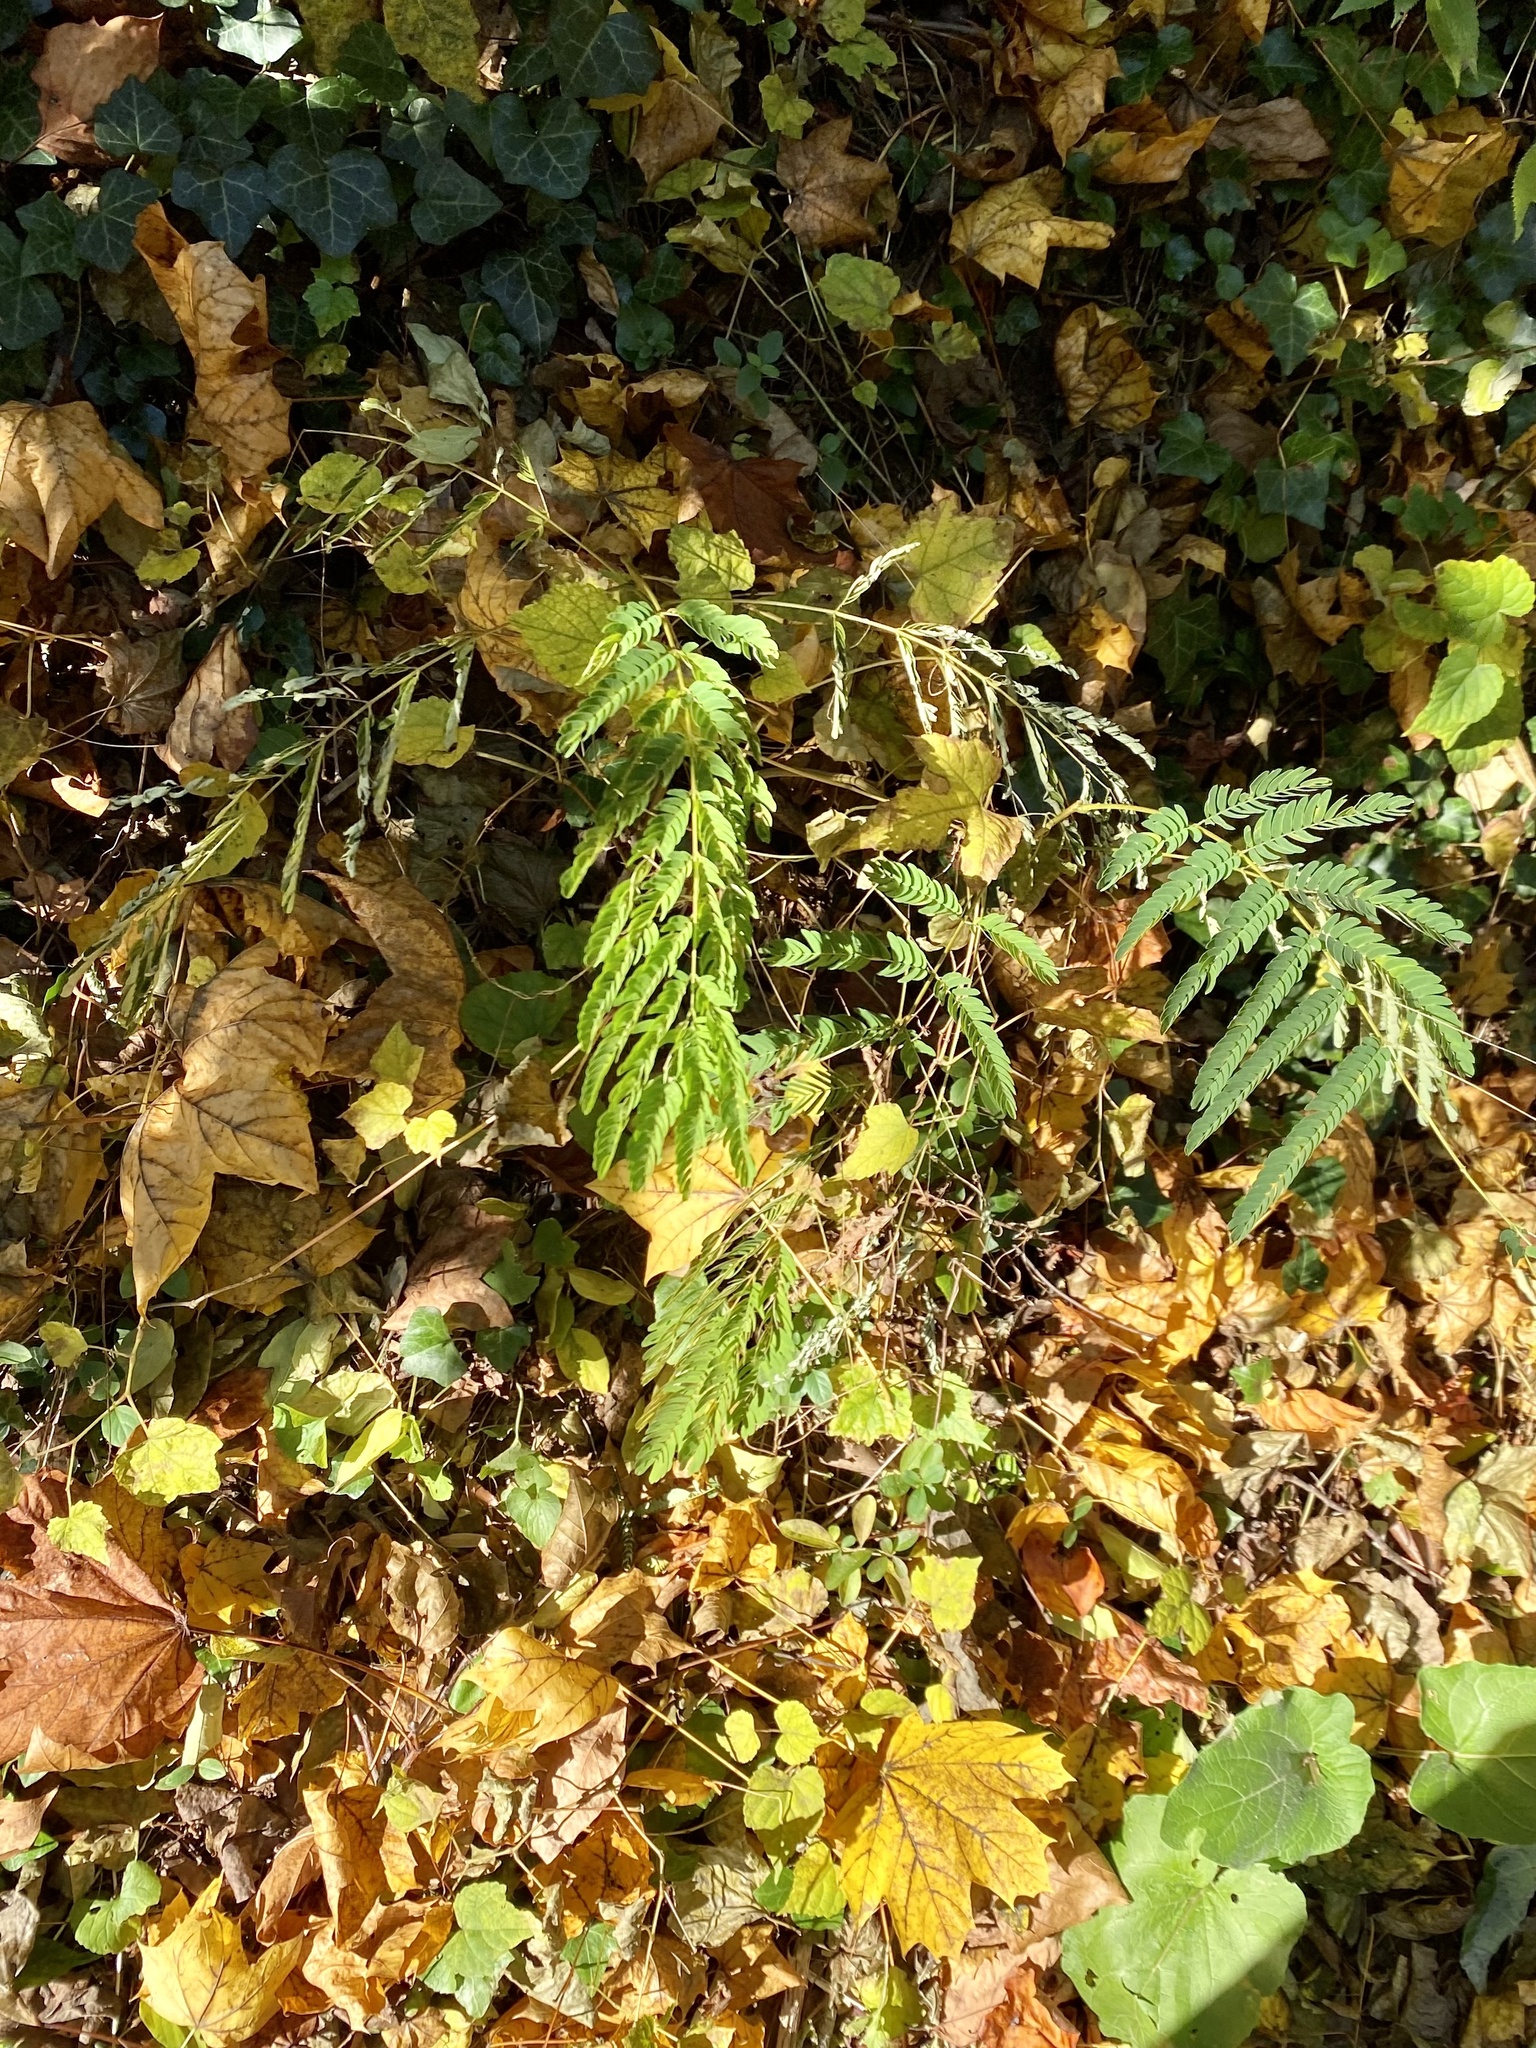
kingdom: Plantae
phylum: Tracheophyta
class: Magnoliopsida
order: Fabales
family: Fabaceae
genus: Albizia
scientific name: Albizia julibrissin
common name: Silktree
